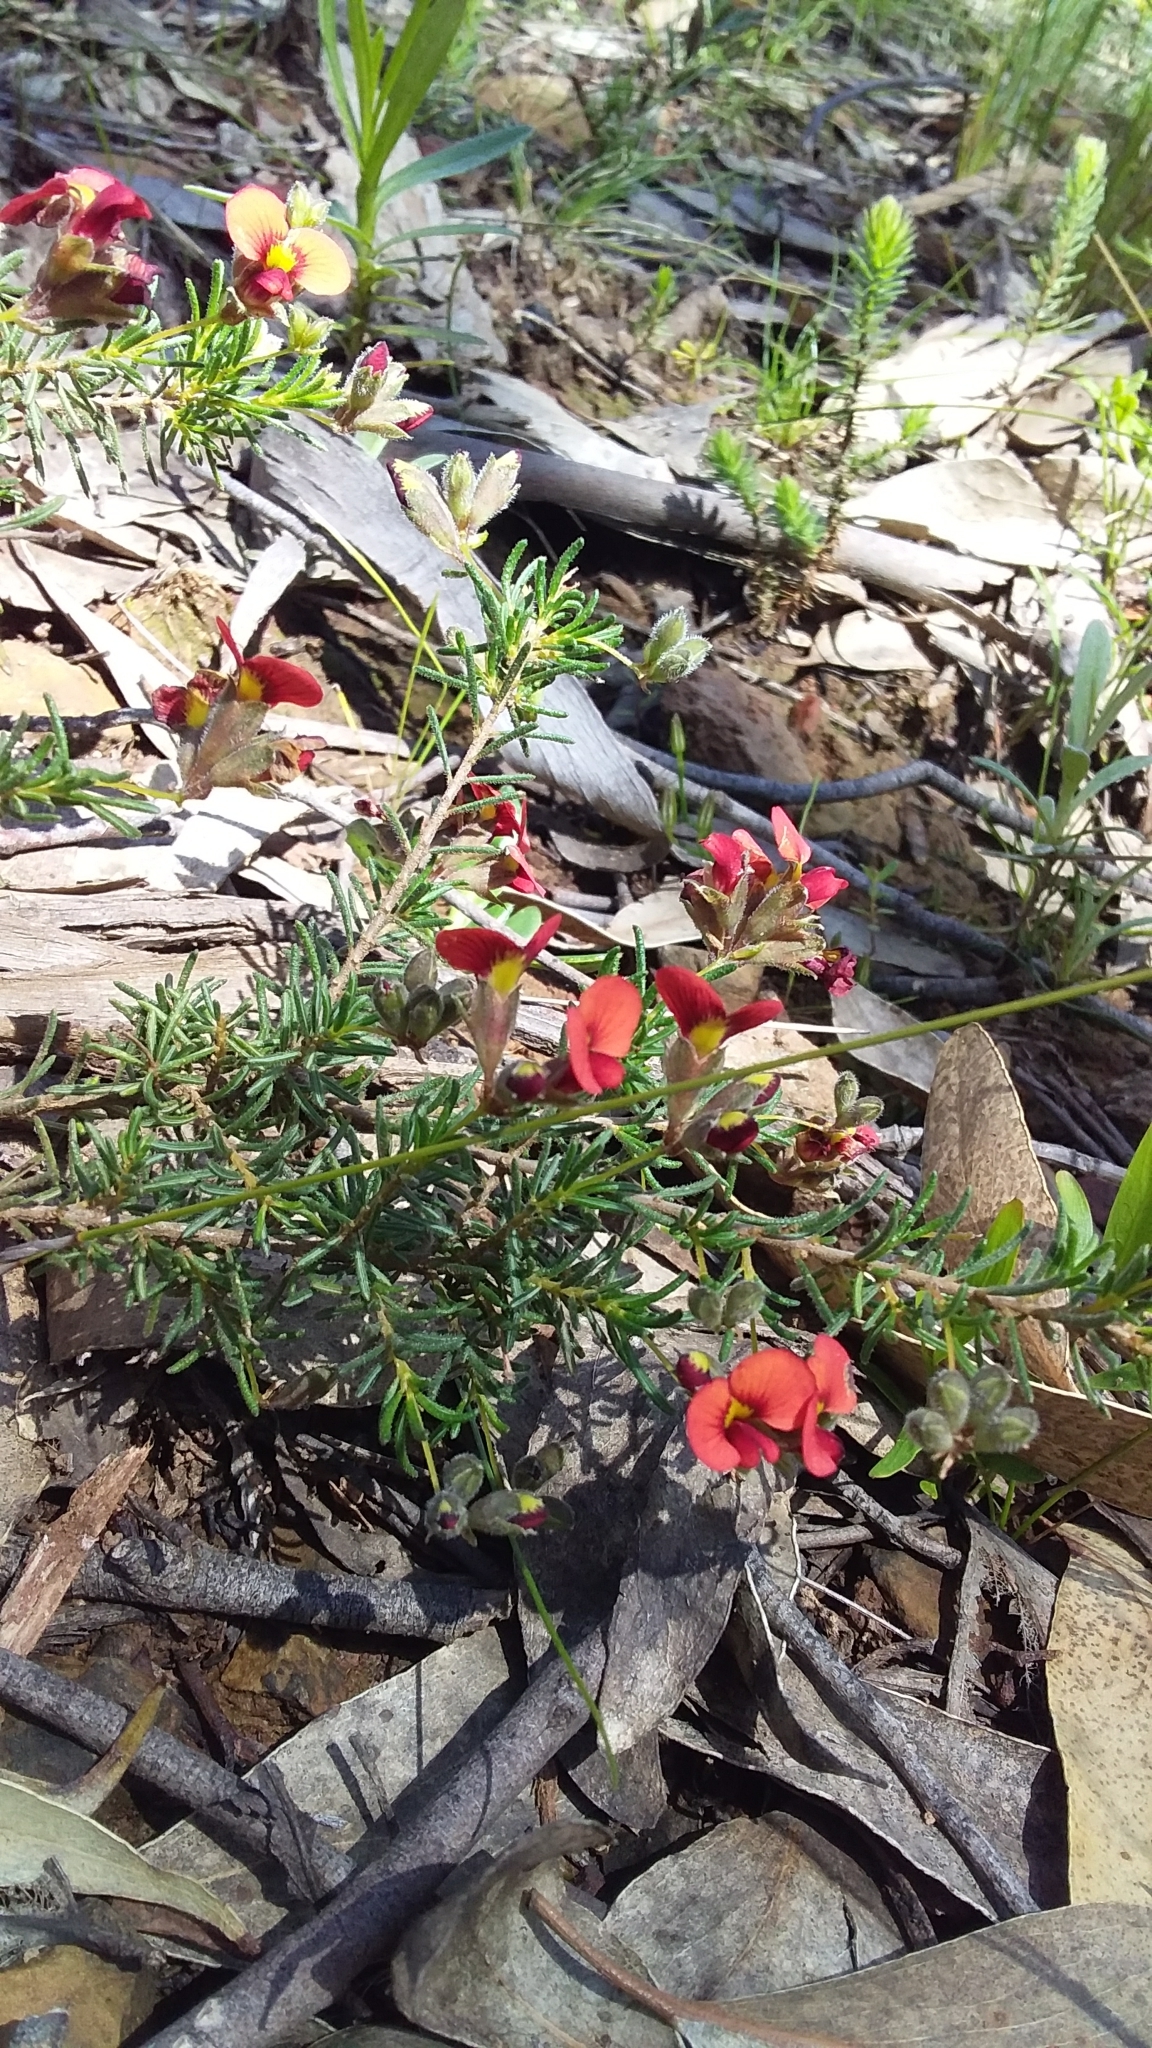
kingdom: Plantae
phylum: Tracheophyta
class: Magnoliopsida
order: Fabales
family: Fabaceae
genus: Dillwynia
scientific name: Dillwynia hispida
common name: Red parrot-pea
